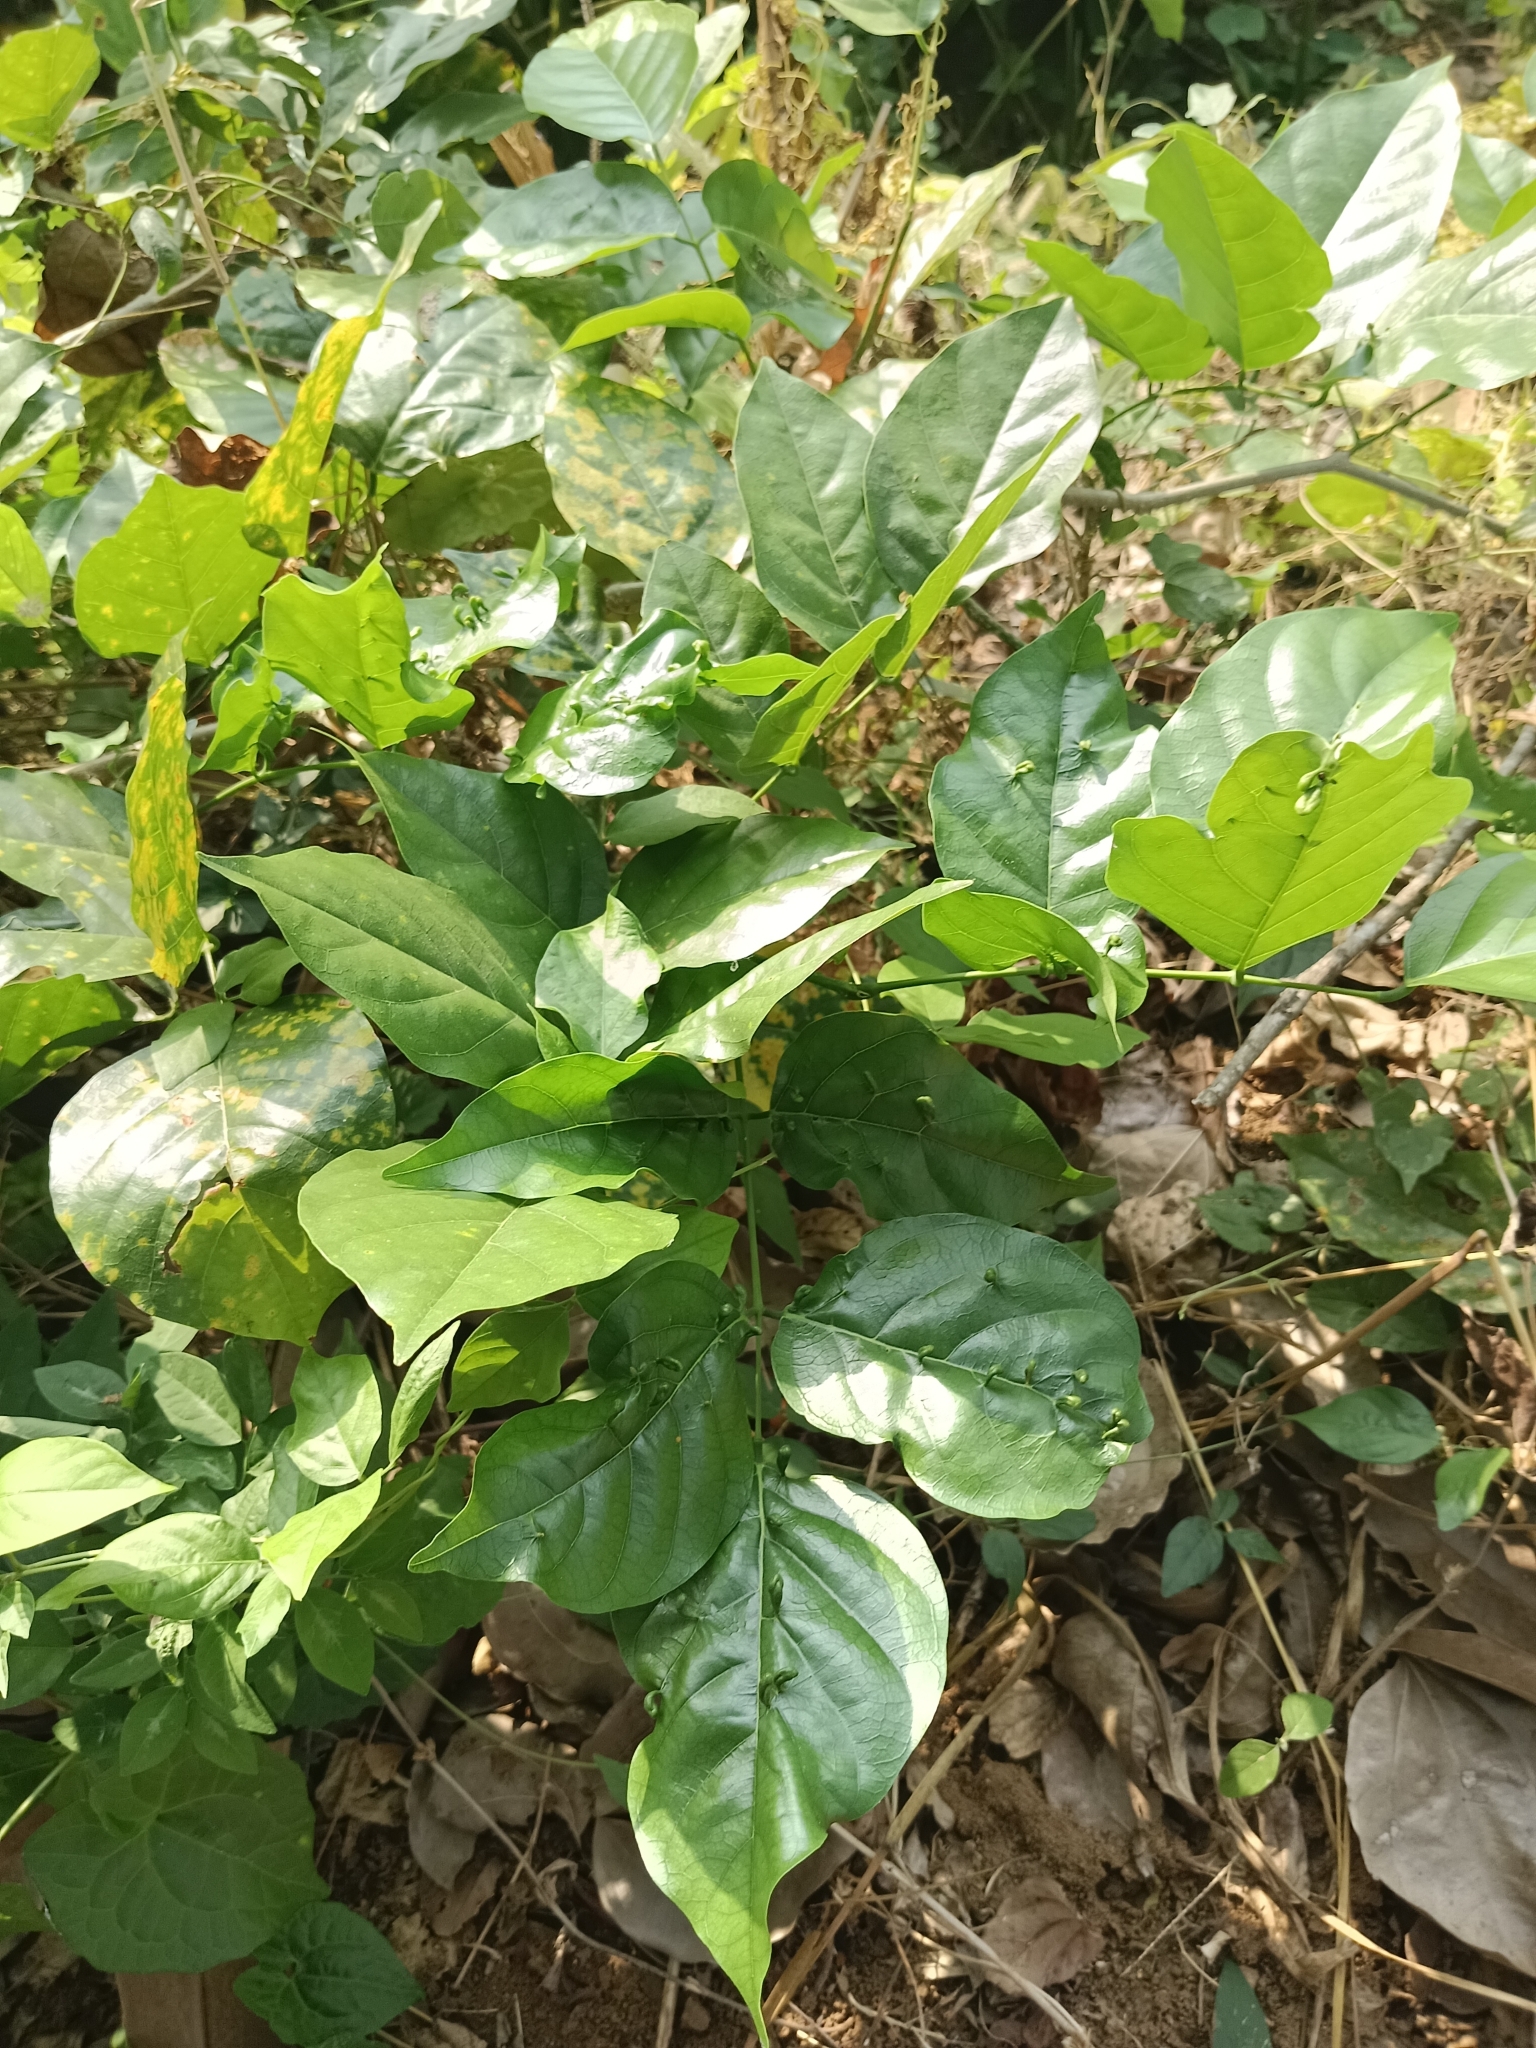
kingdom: Plantae
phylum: Tracheophyta
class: Magnoliopsida
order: Fabales
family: Fabaceae
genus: Pongamia
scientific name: Pongamia pinnata
